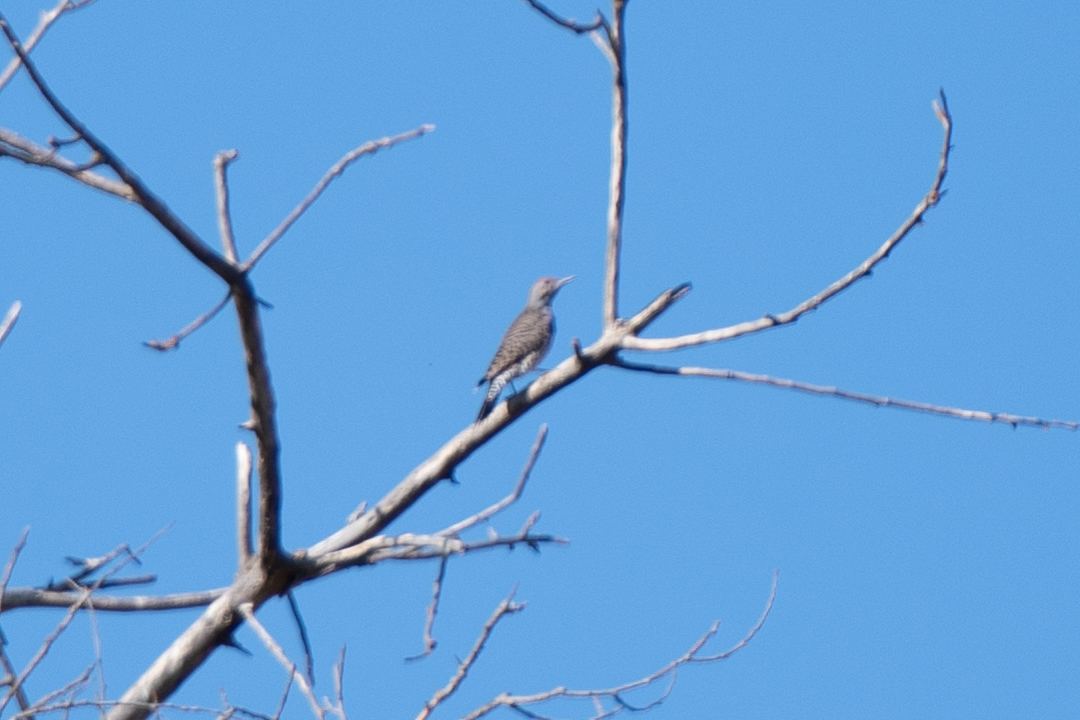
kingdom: Animalia
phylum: Chordata
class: Aves
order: Piciformes
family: Picidae
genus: Colaptes
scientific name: Colaptes auratus
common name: Northern flicker
